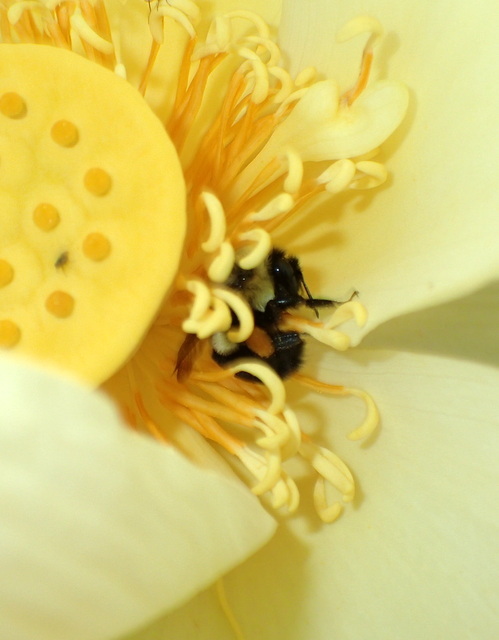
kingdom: Animalia
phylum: Arthropoda
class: Insecta
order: Hymenoptera
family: Apidae
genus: Bombus
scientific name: Bombus impatiens
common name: Common eastern bumble bee
